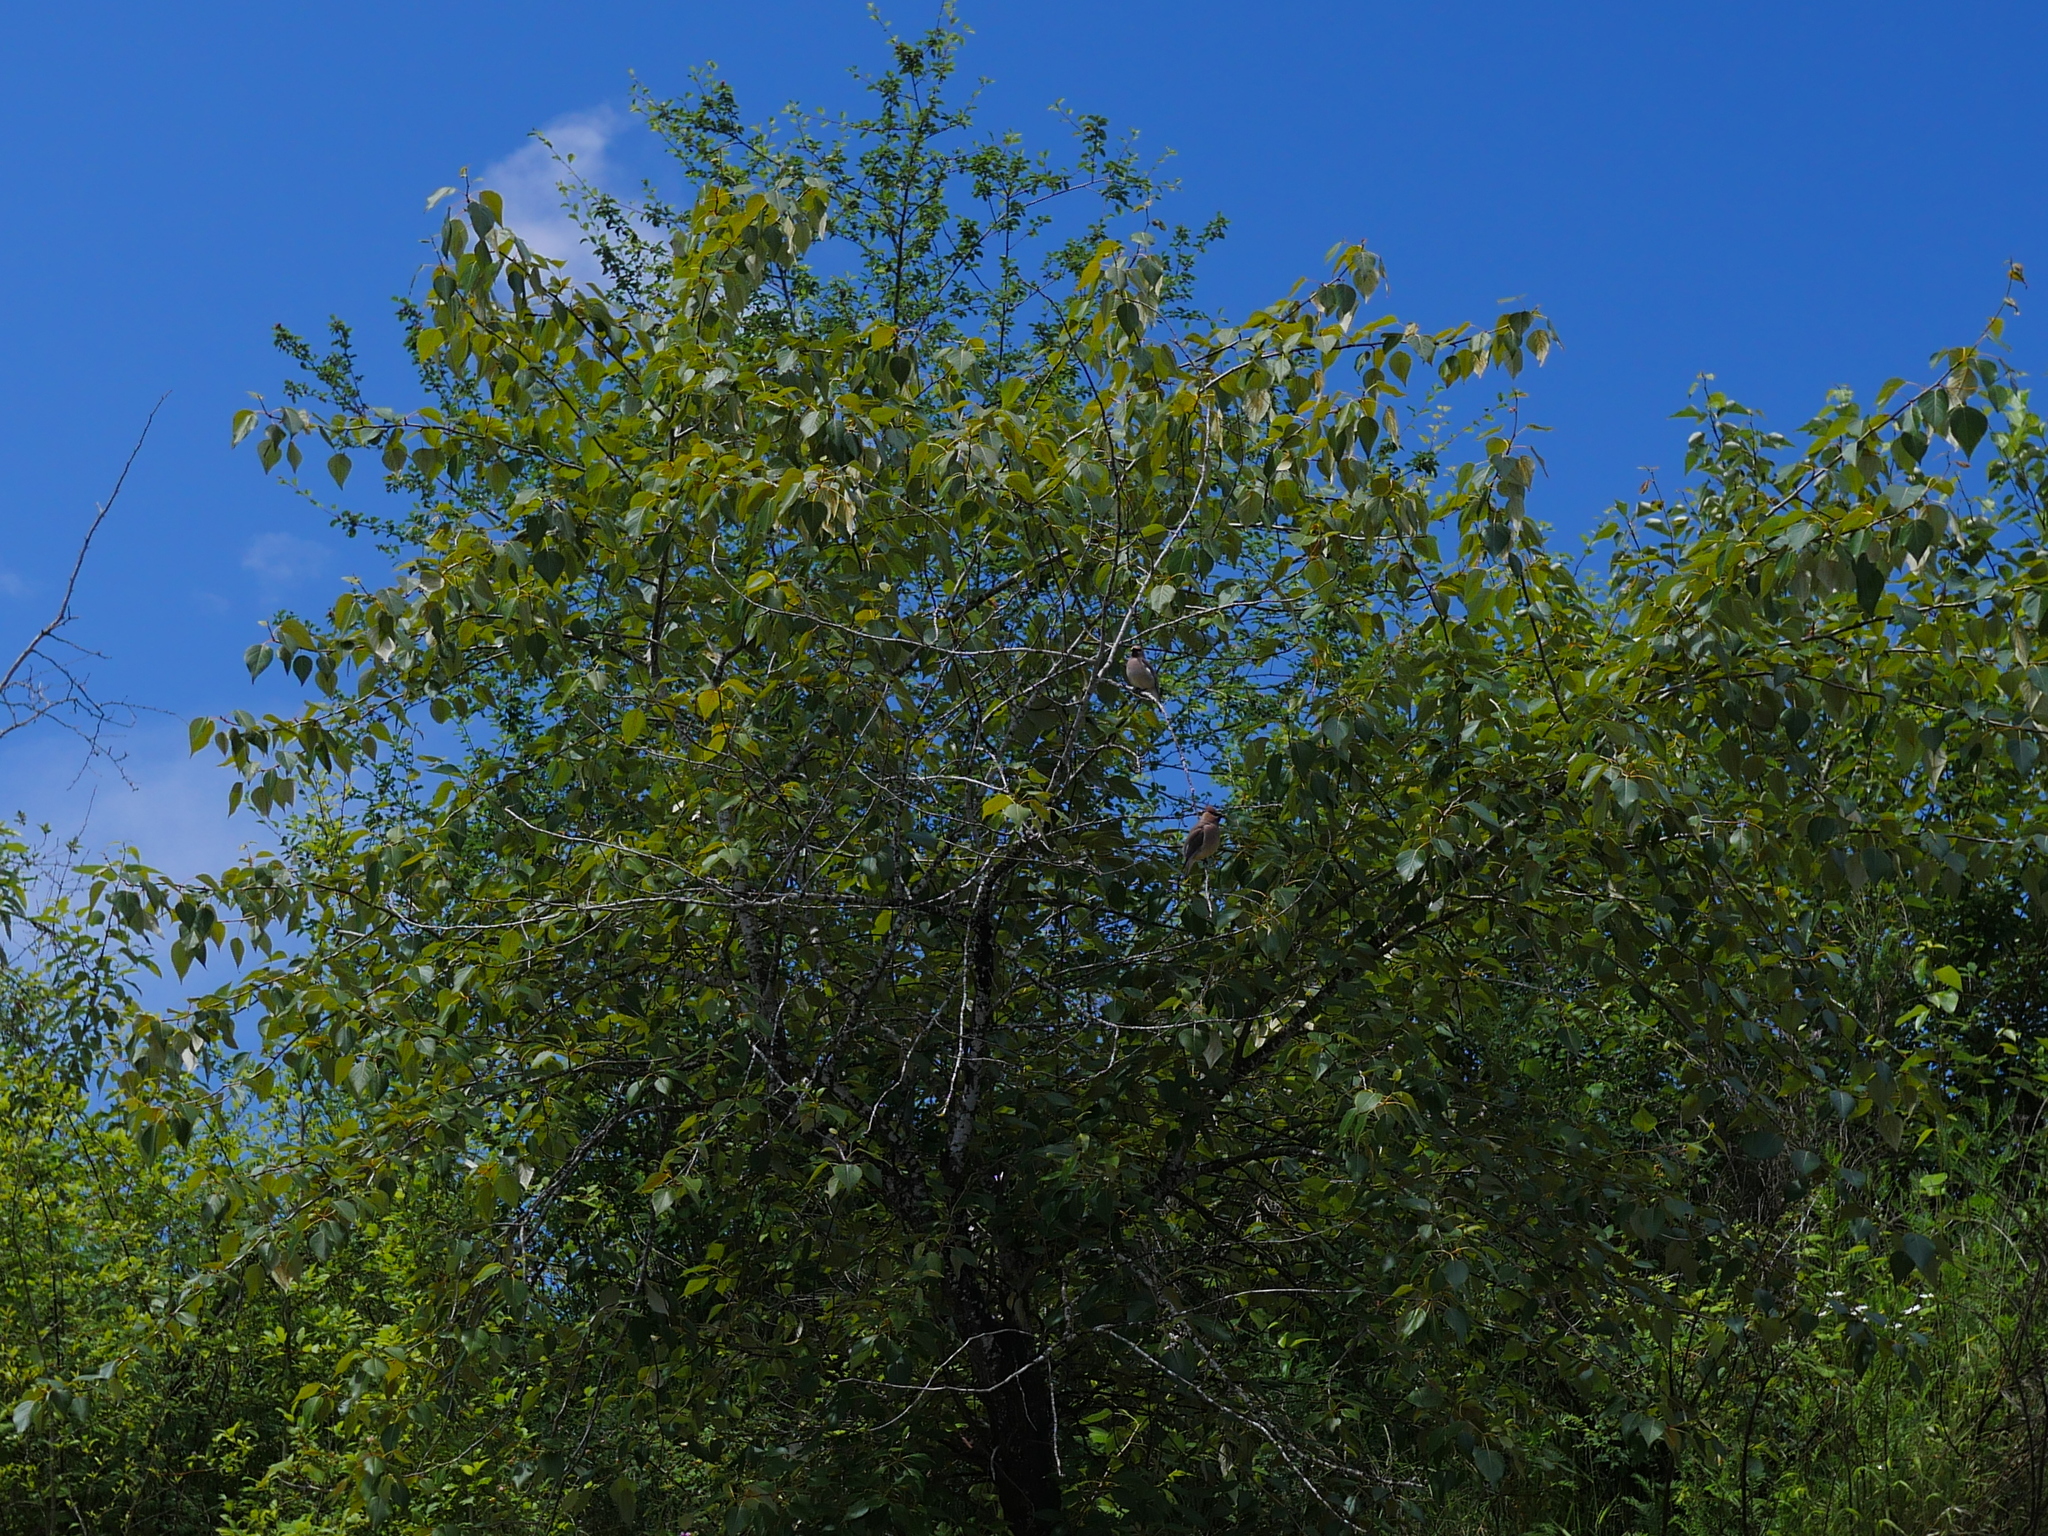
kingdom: Animalia
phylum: Chordata
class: Aves
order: Passeriformes
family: Bombycillidae
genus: Bombycilla
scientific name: Bombycilla cedrorum
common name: Cedar waxwing
